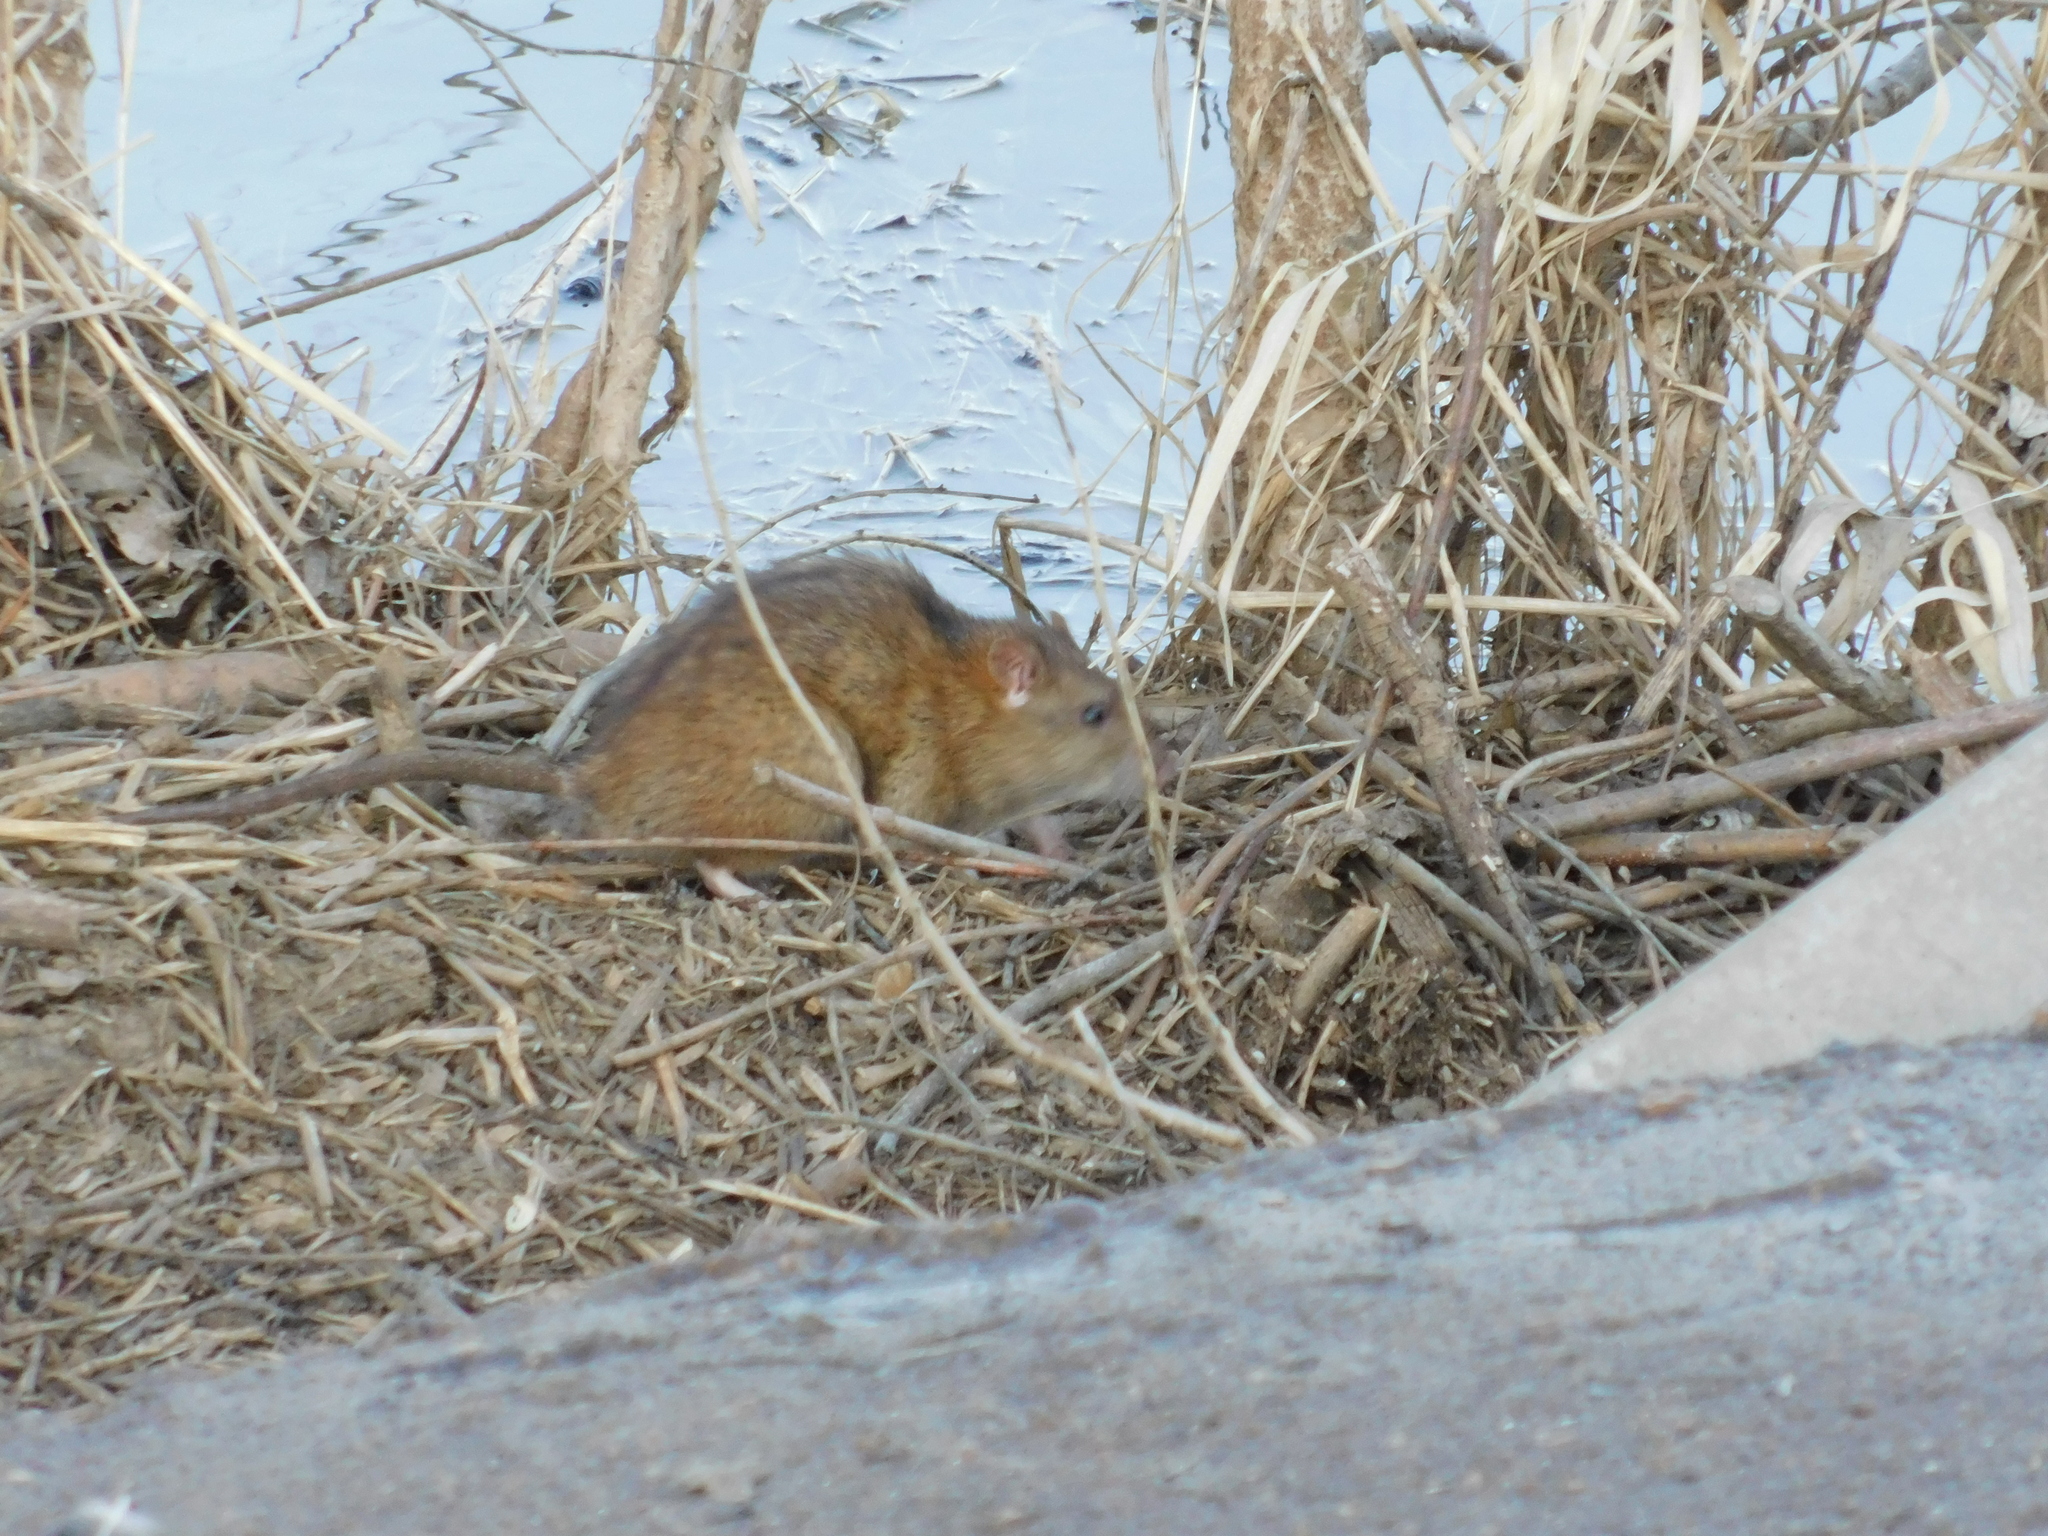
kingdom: Animalia
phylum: Chordata
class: Mammalia
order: Rodentia
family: Muridae
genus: Rattus
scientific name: Rattus norvegicus
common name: Brown rat
